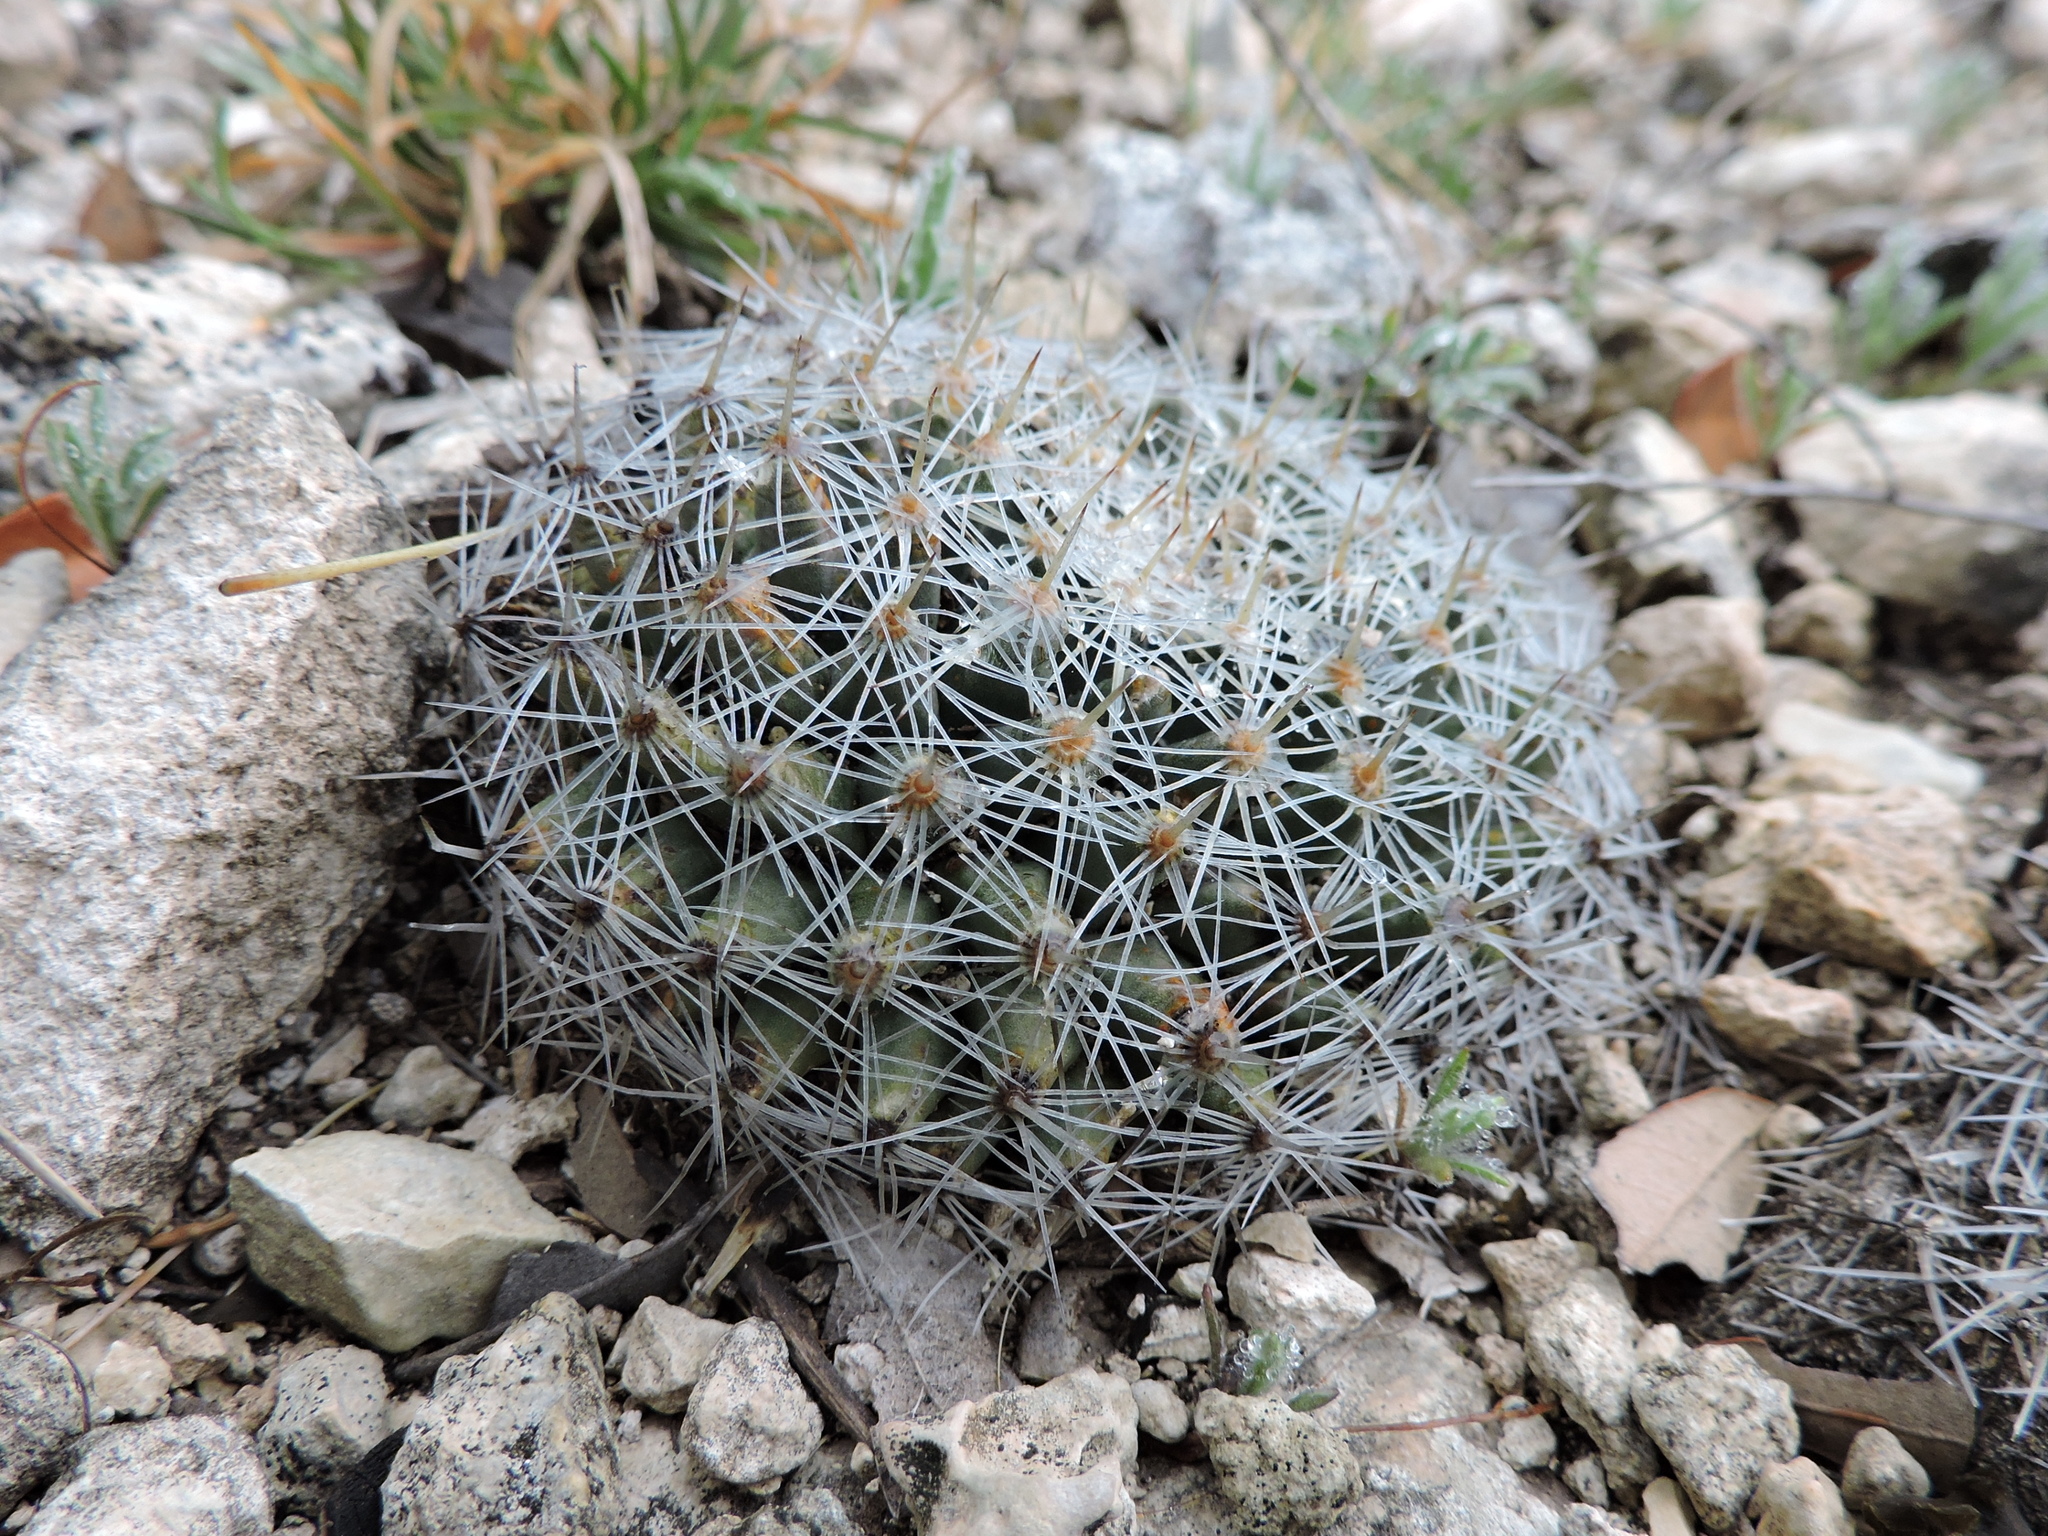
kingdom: Plantae
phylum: Tracheophyta
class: Magnoliopsida
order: Caryophyllales
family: Cactaceae
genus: Mammillaria
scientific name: Mammillaria heyderi
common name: Little nipple cactus
